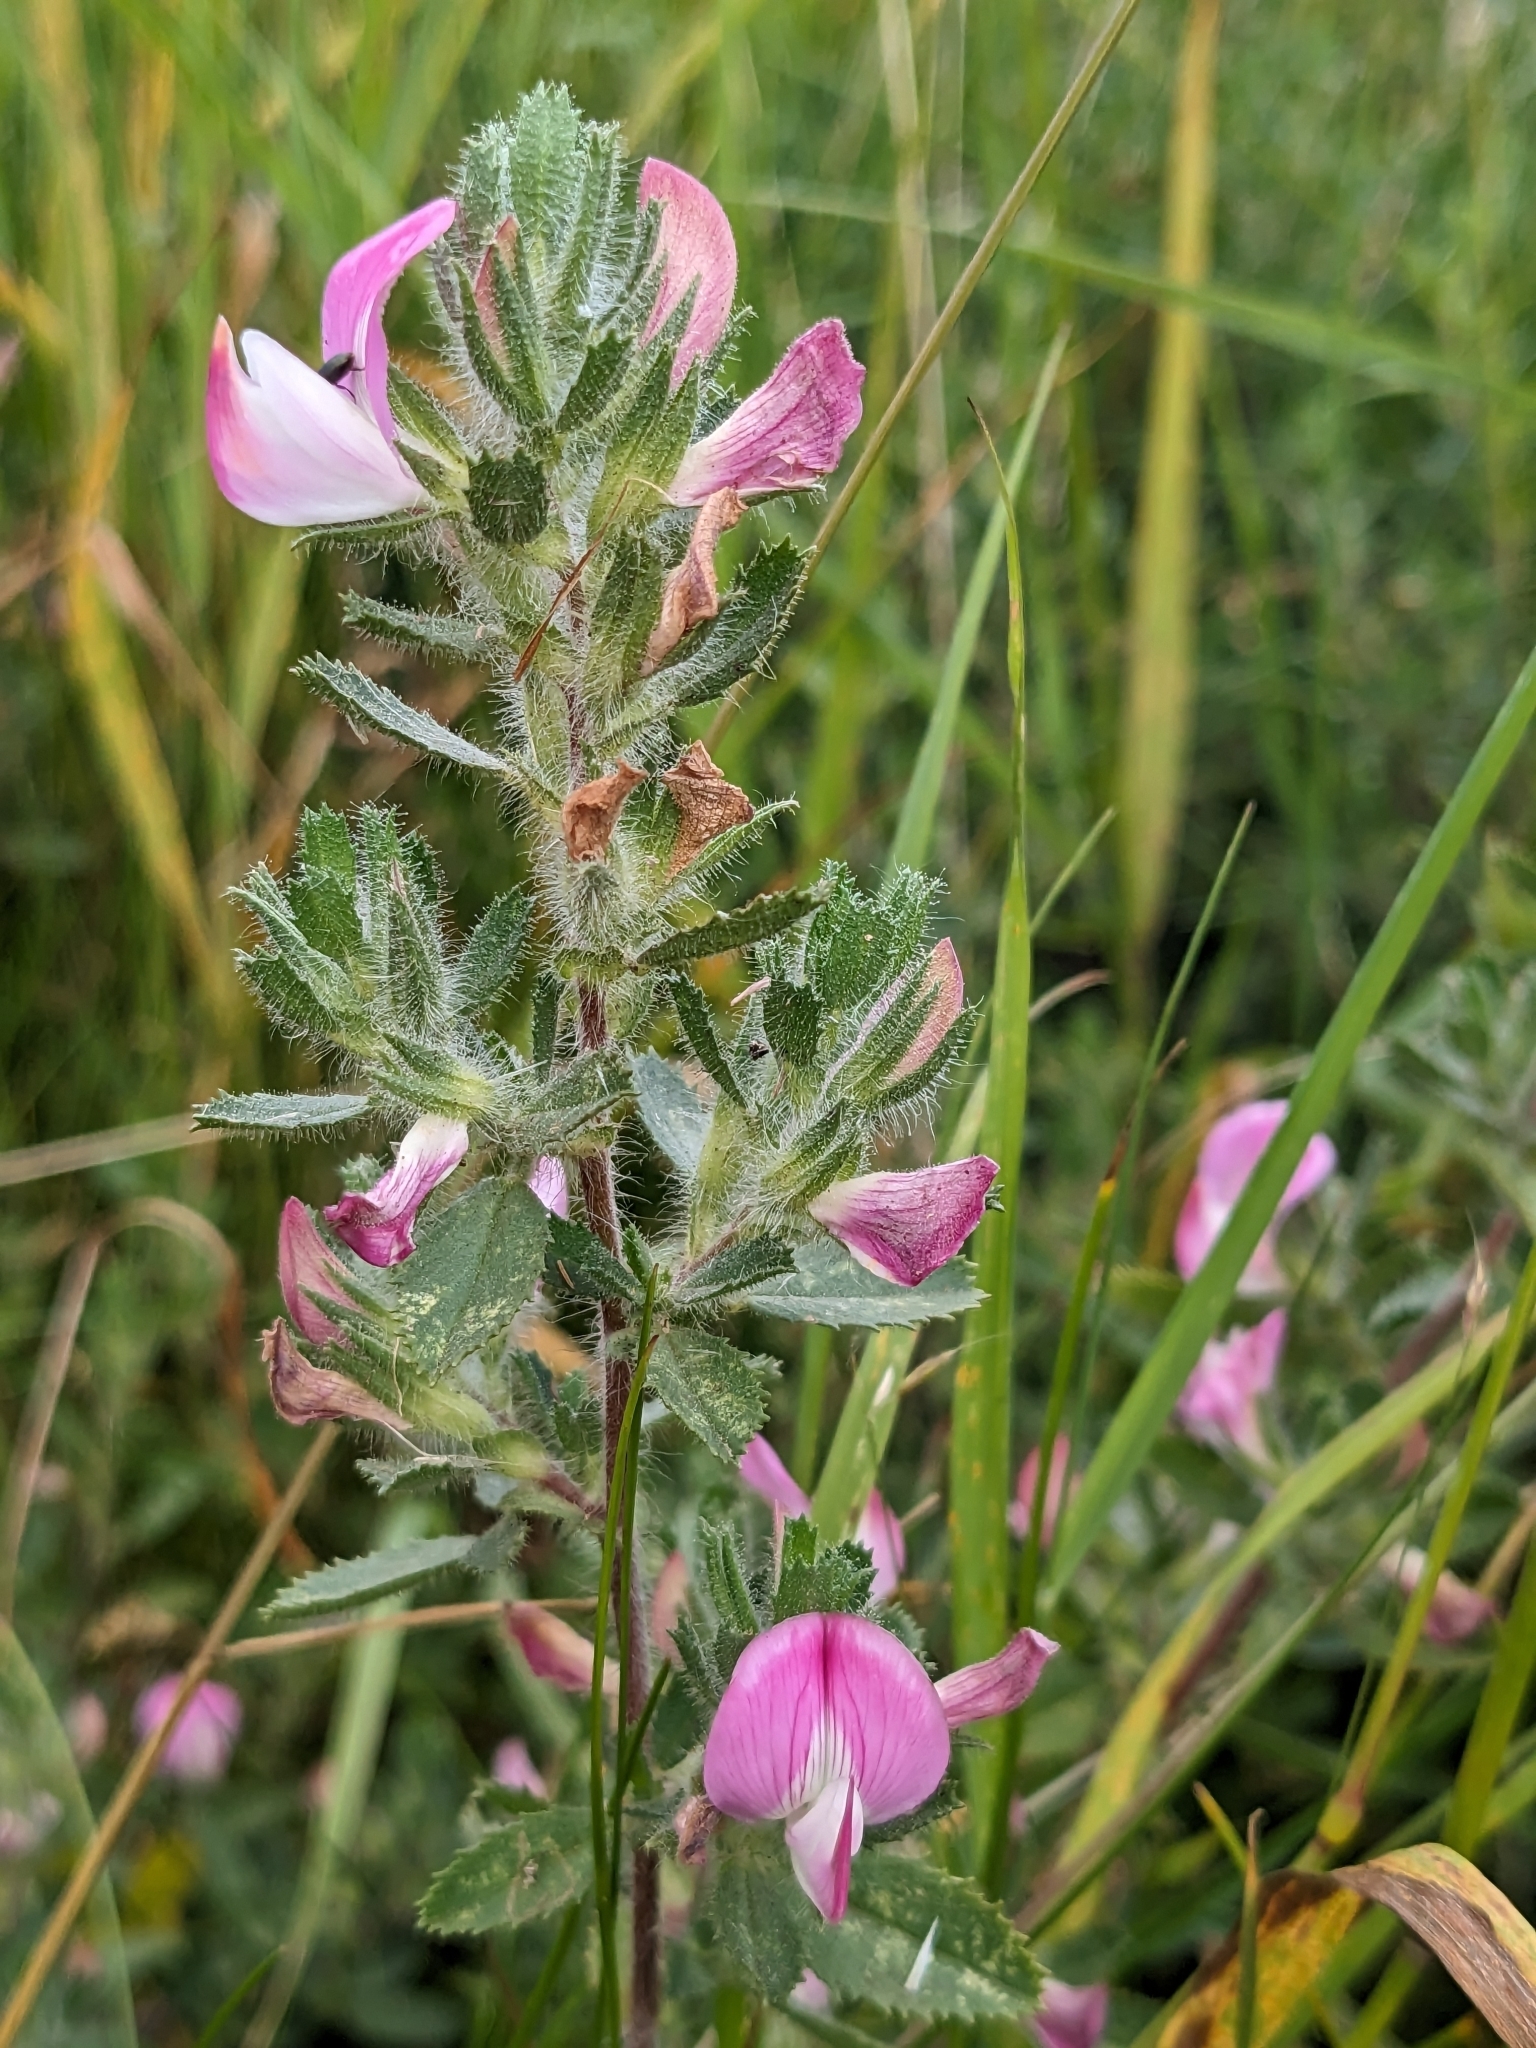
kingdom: Plantae
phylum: Tracheophyta
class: Magnoliopsida
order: Fabales
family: Fabaceae
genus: Ononis
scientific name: Ononis spinosa
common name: Spiny restharrow
